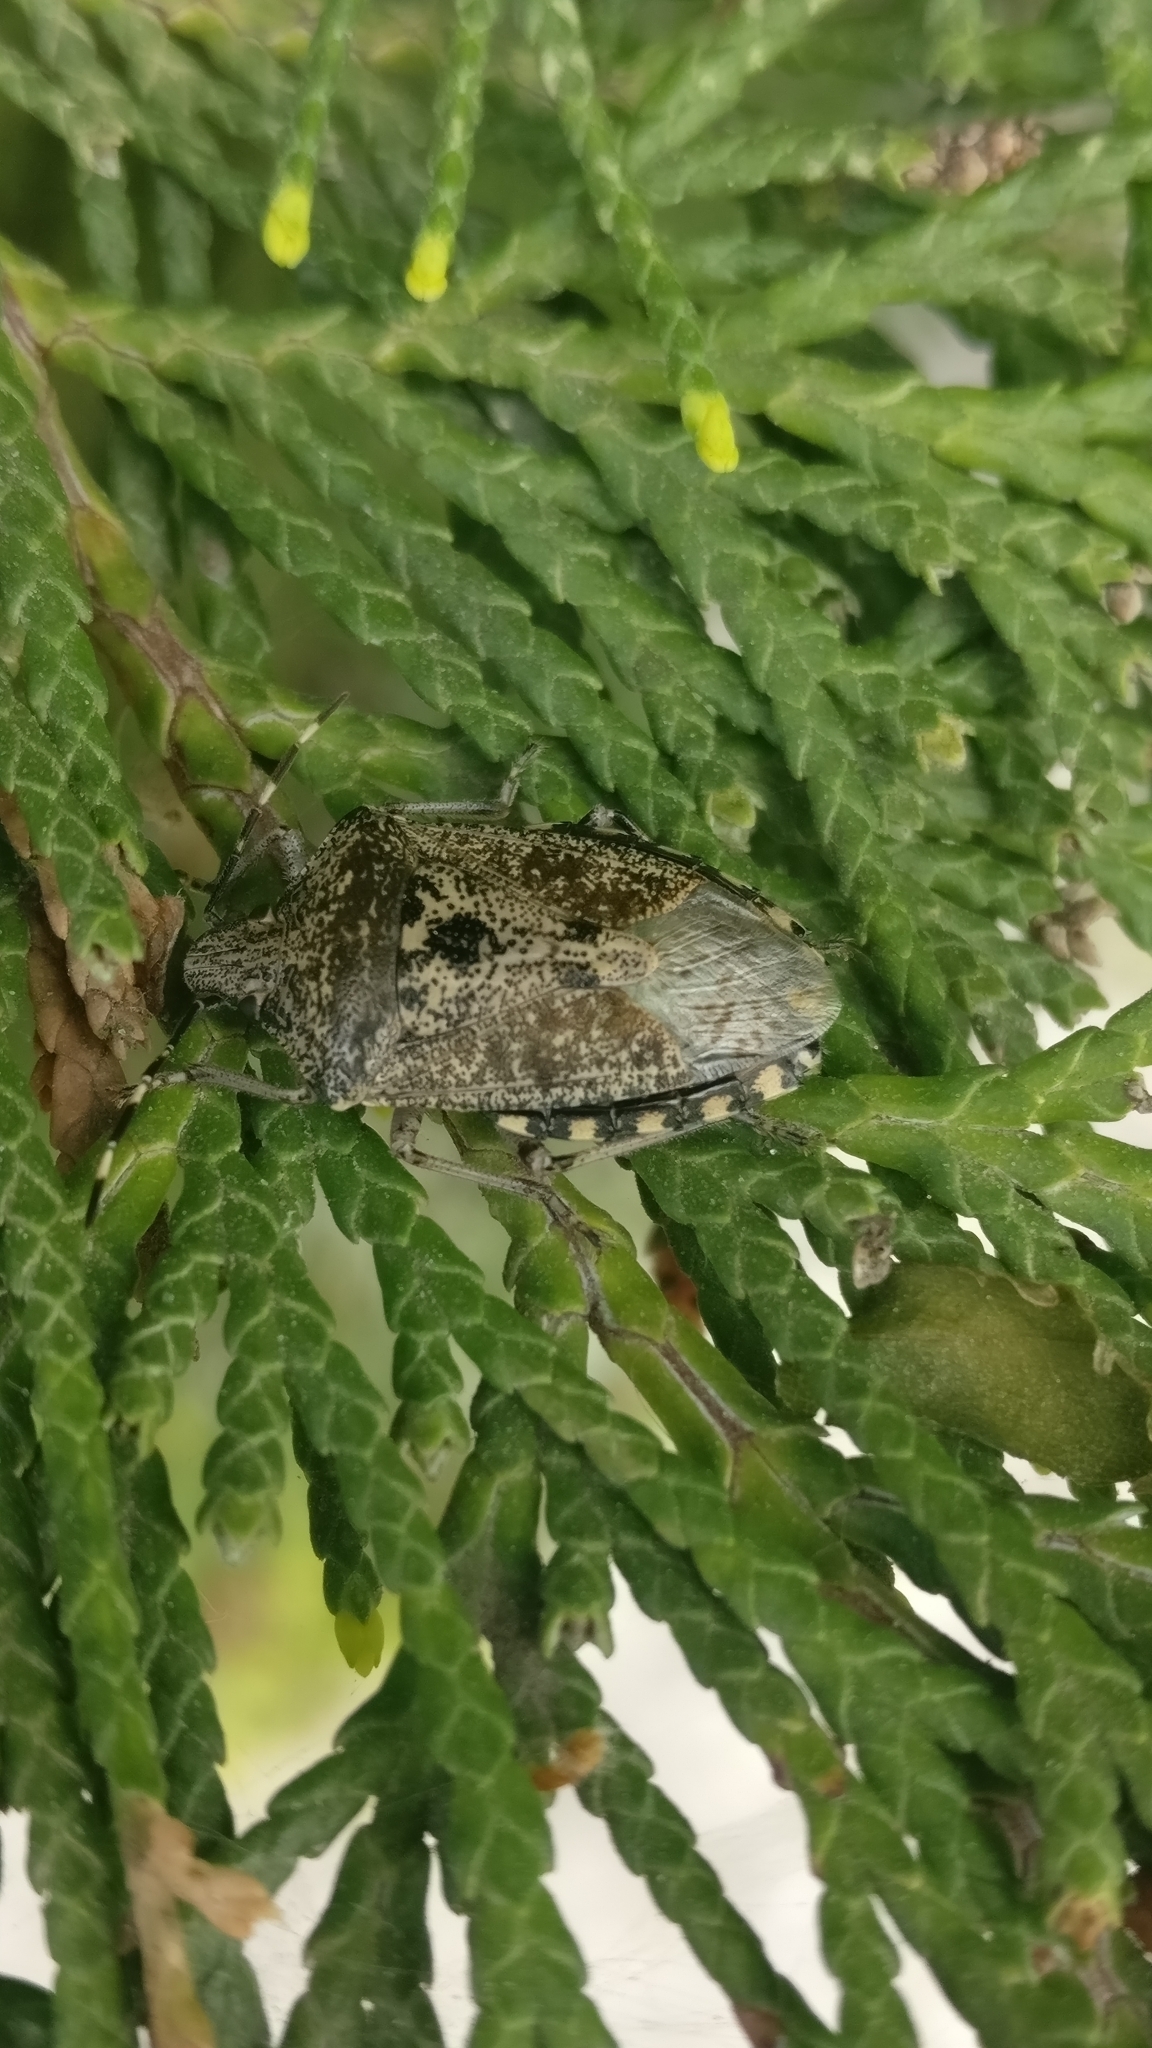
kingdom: Animalia
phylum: Arthropoda
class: Insecta
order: Hemiptera
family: Pentatomidae
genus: Rhaphigaster
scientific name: Rhaphigaster nebulosa
